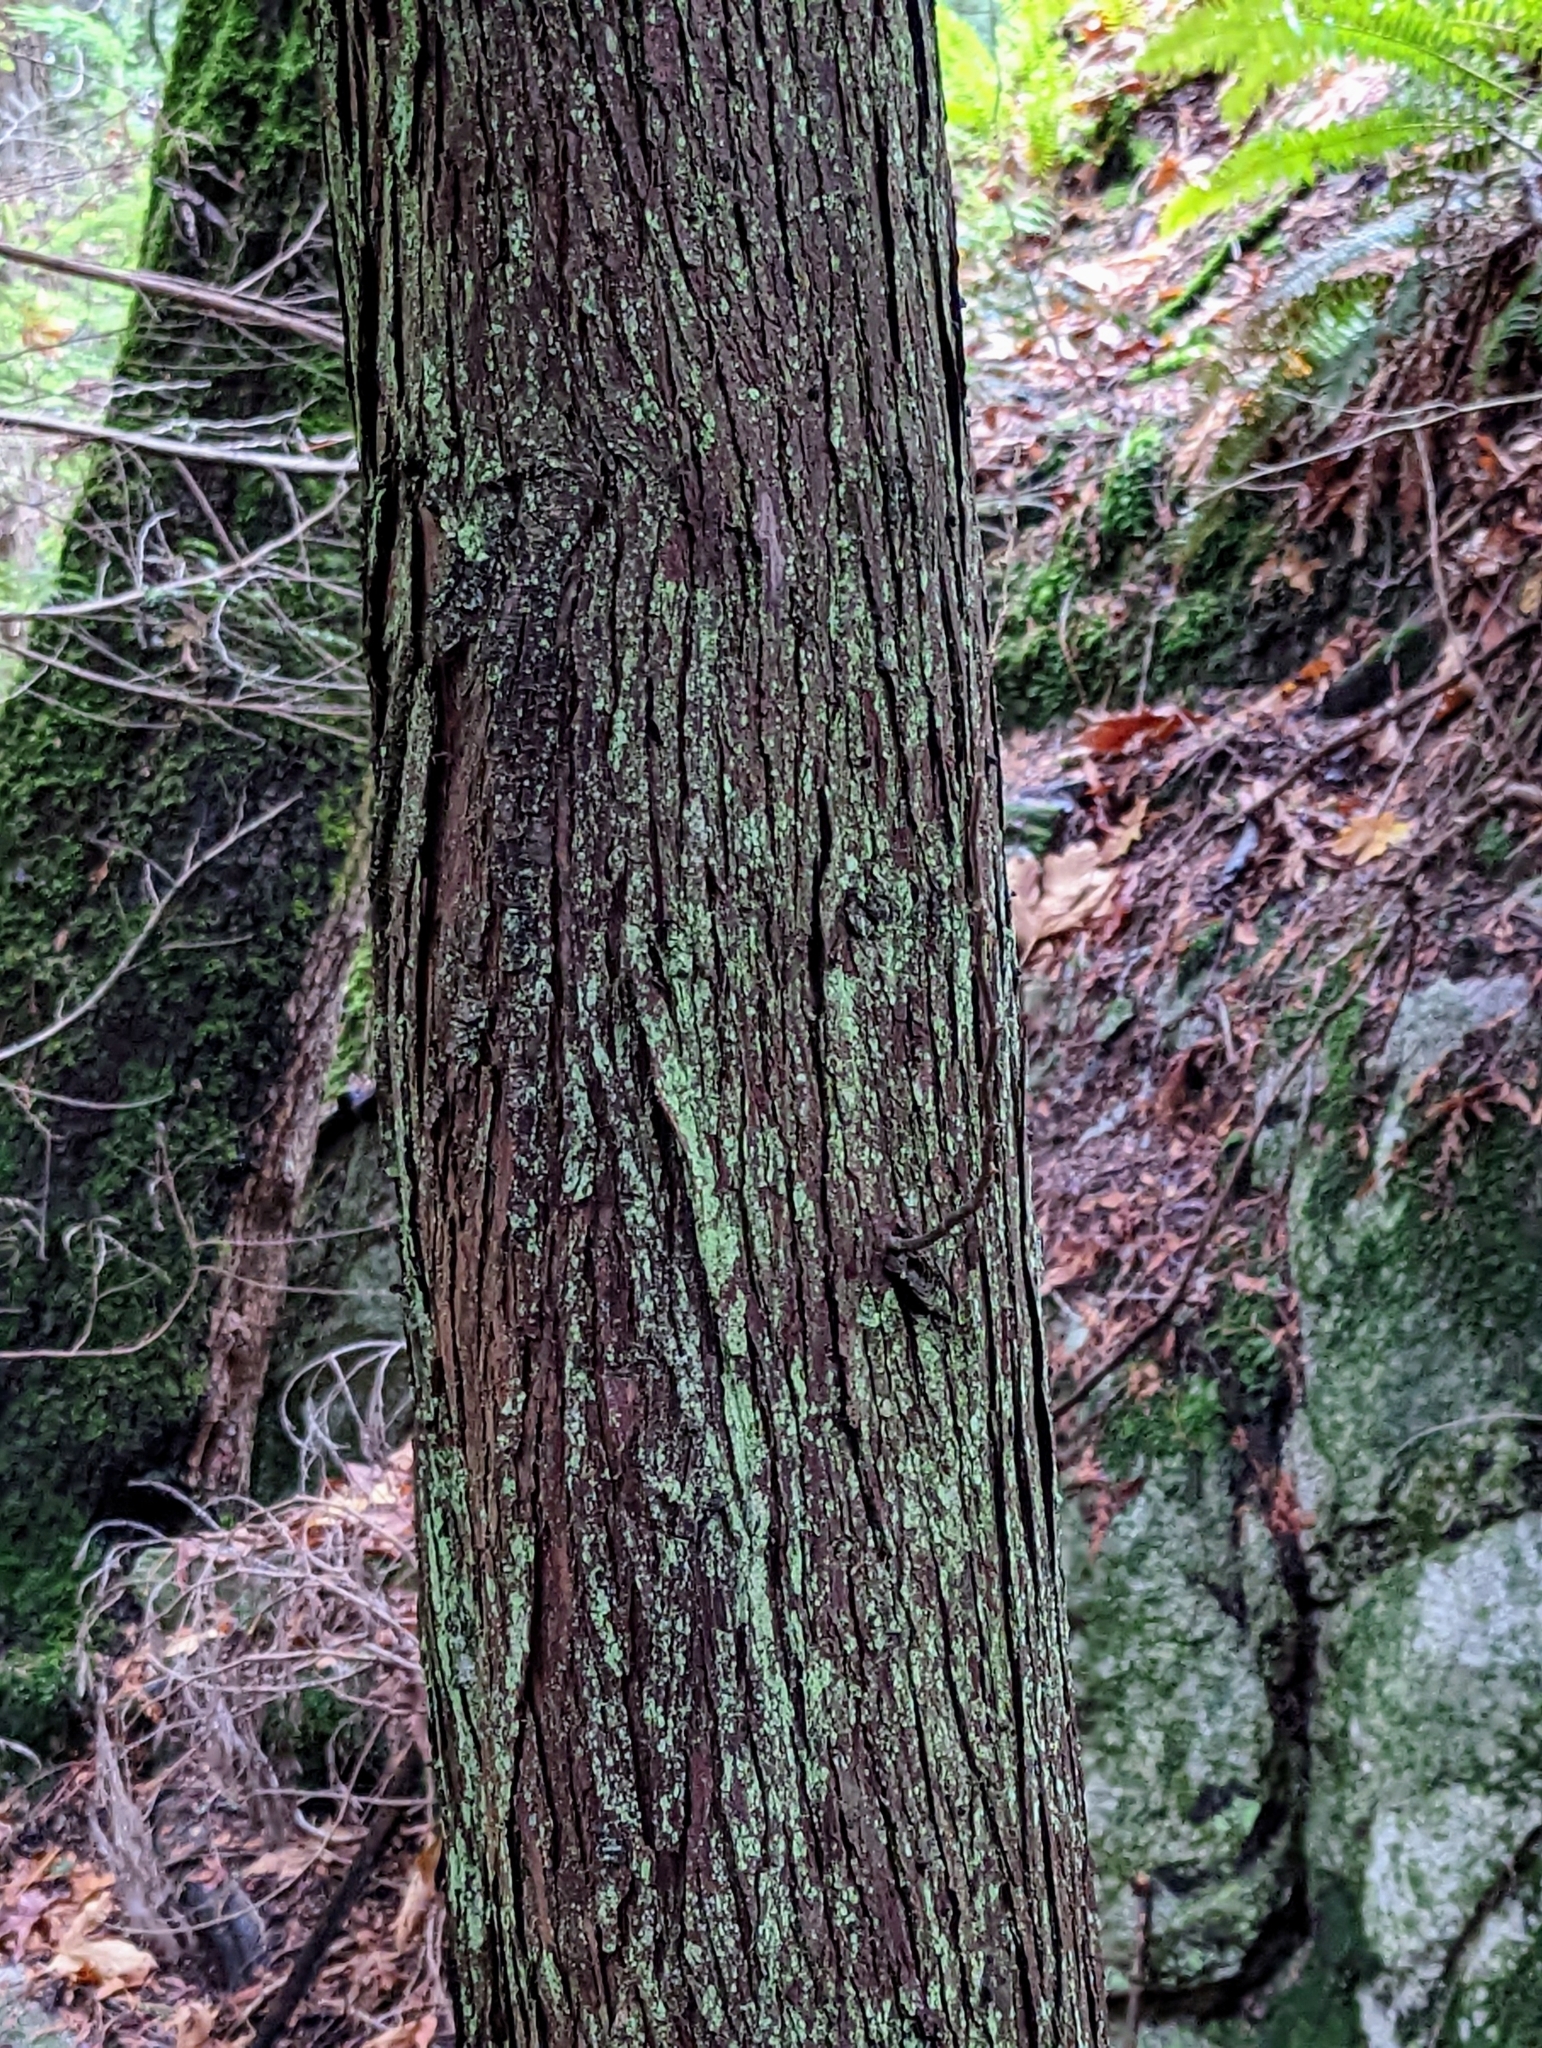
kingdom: Plantae
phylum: Tracheophyta
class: Pinopsida
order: Pinales
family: Cupressaceae
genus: Thuja
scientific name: Thuja plicata
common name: Western red-cedar
